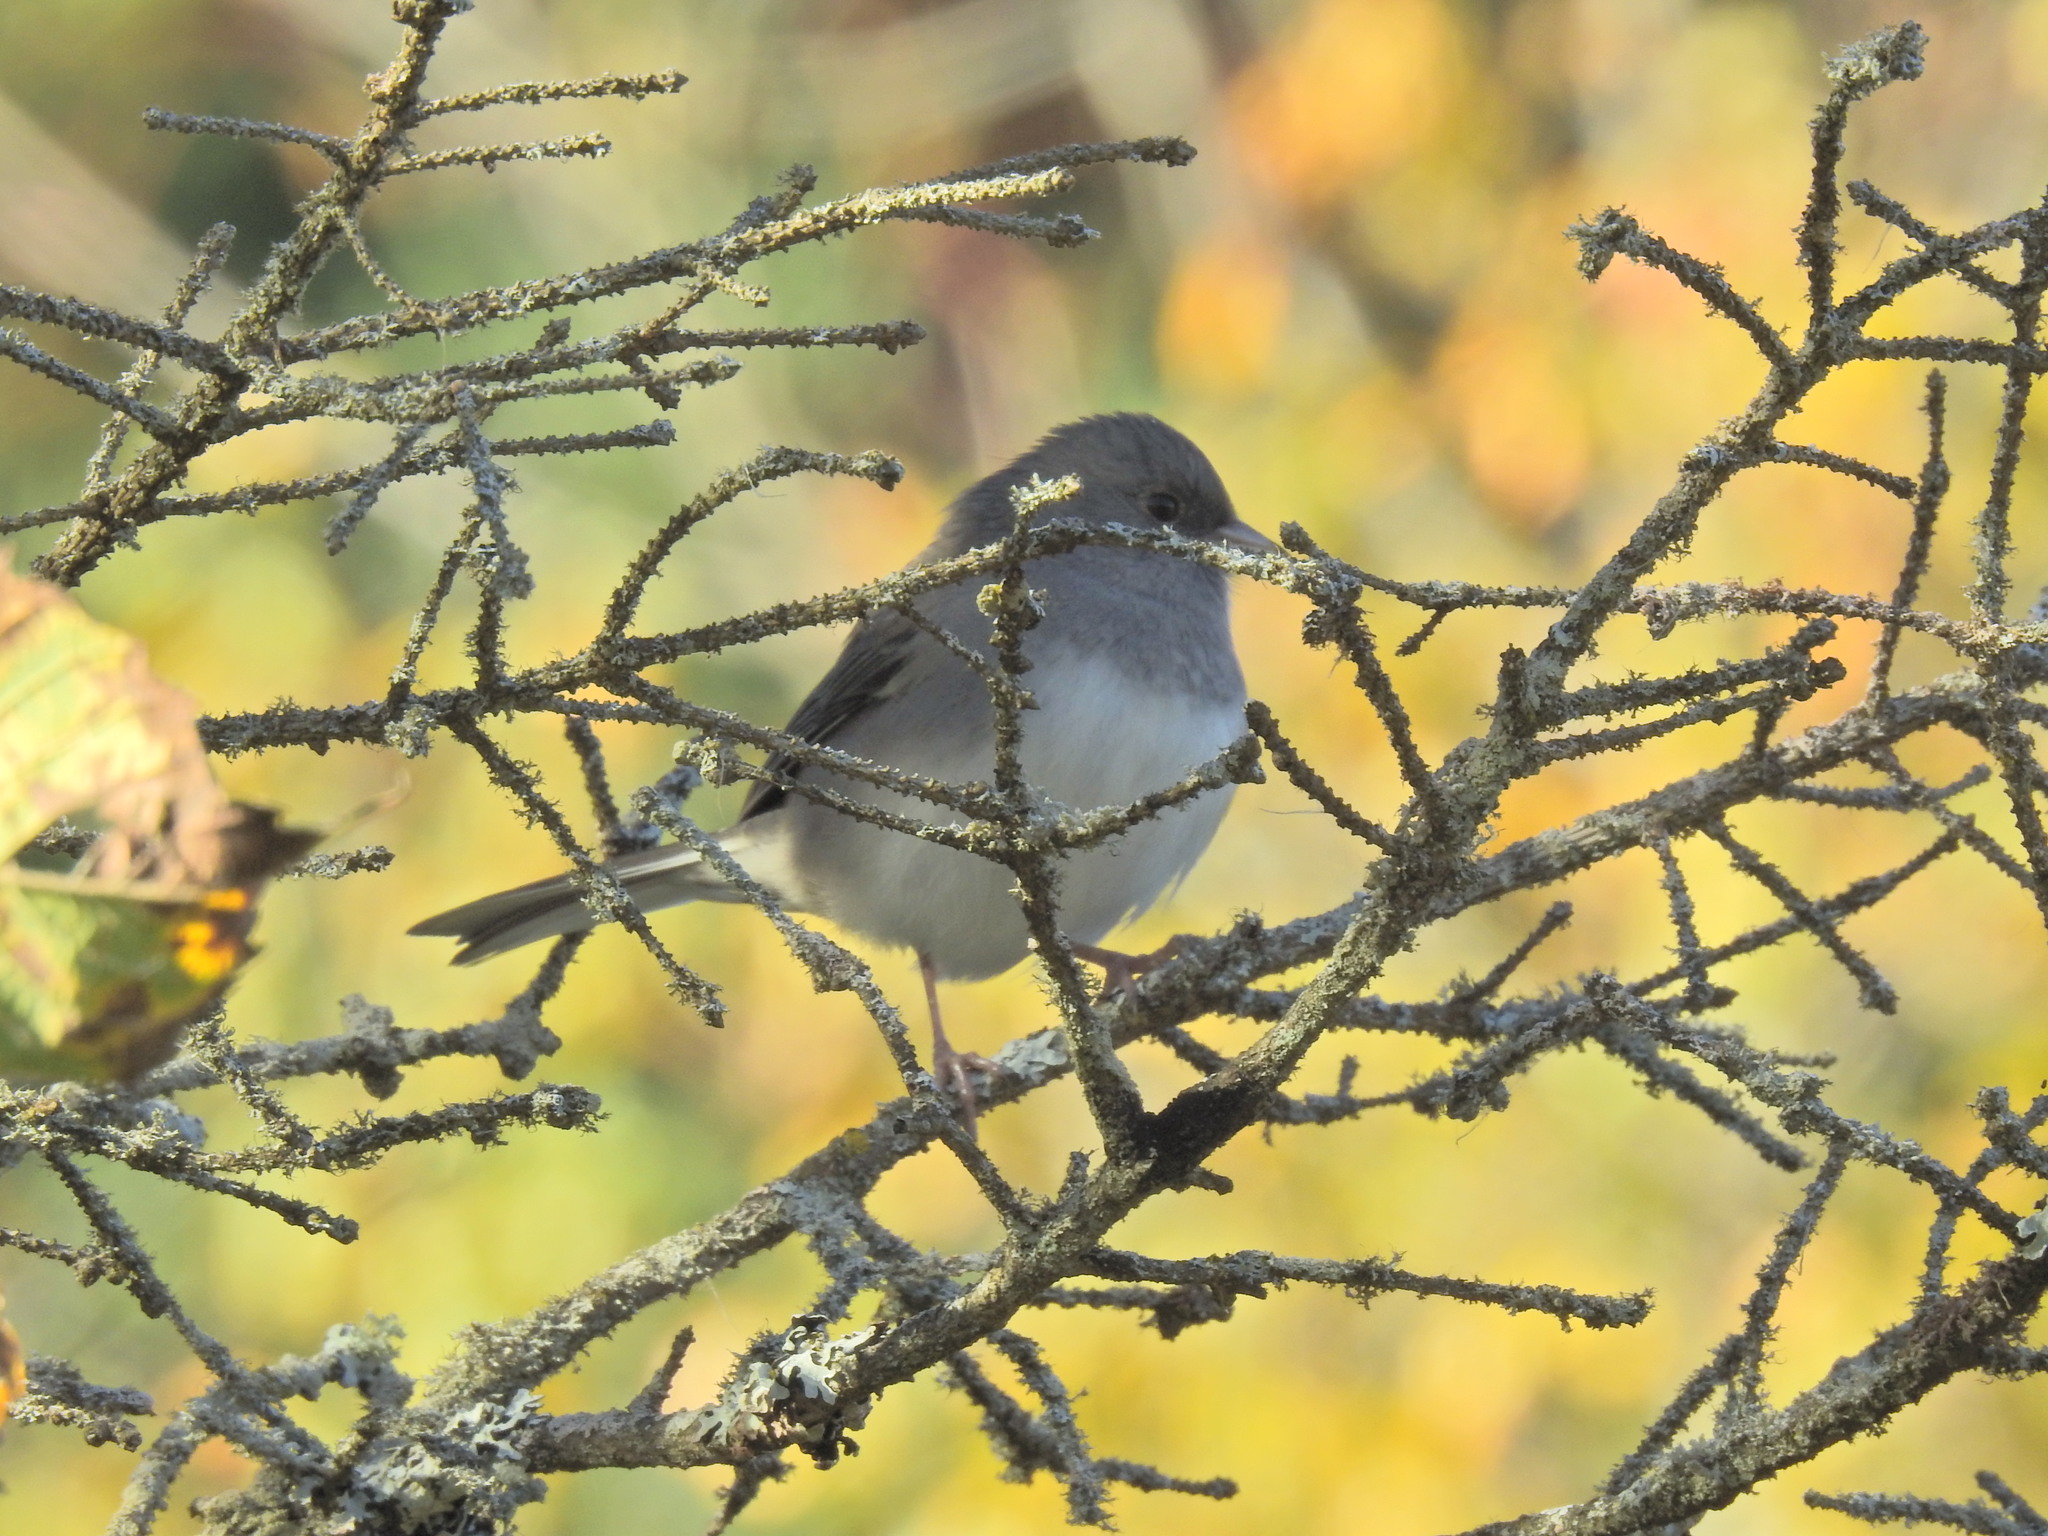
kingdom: Animalia
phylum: Chordata
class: Aves
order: Passeriformes
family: Passerellidae
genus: Junco
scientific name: Junco hyemalis
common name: Dark-eyed junco
